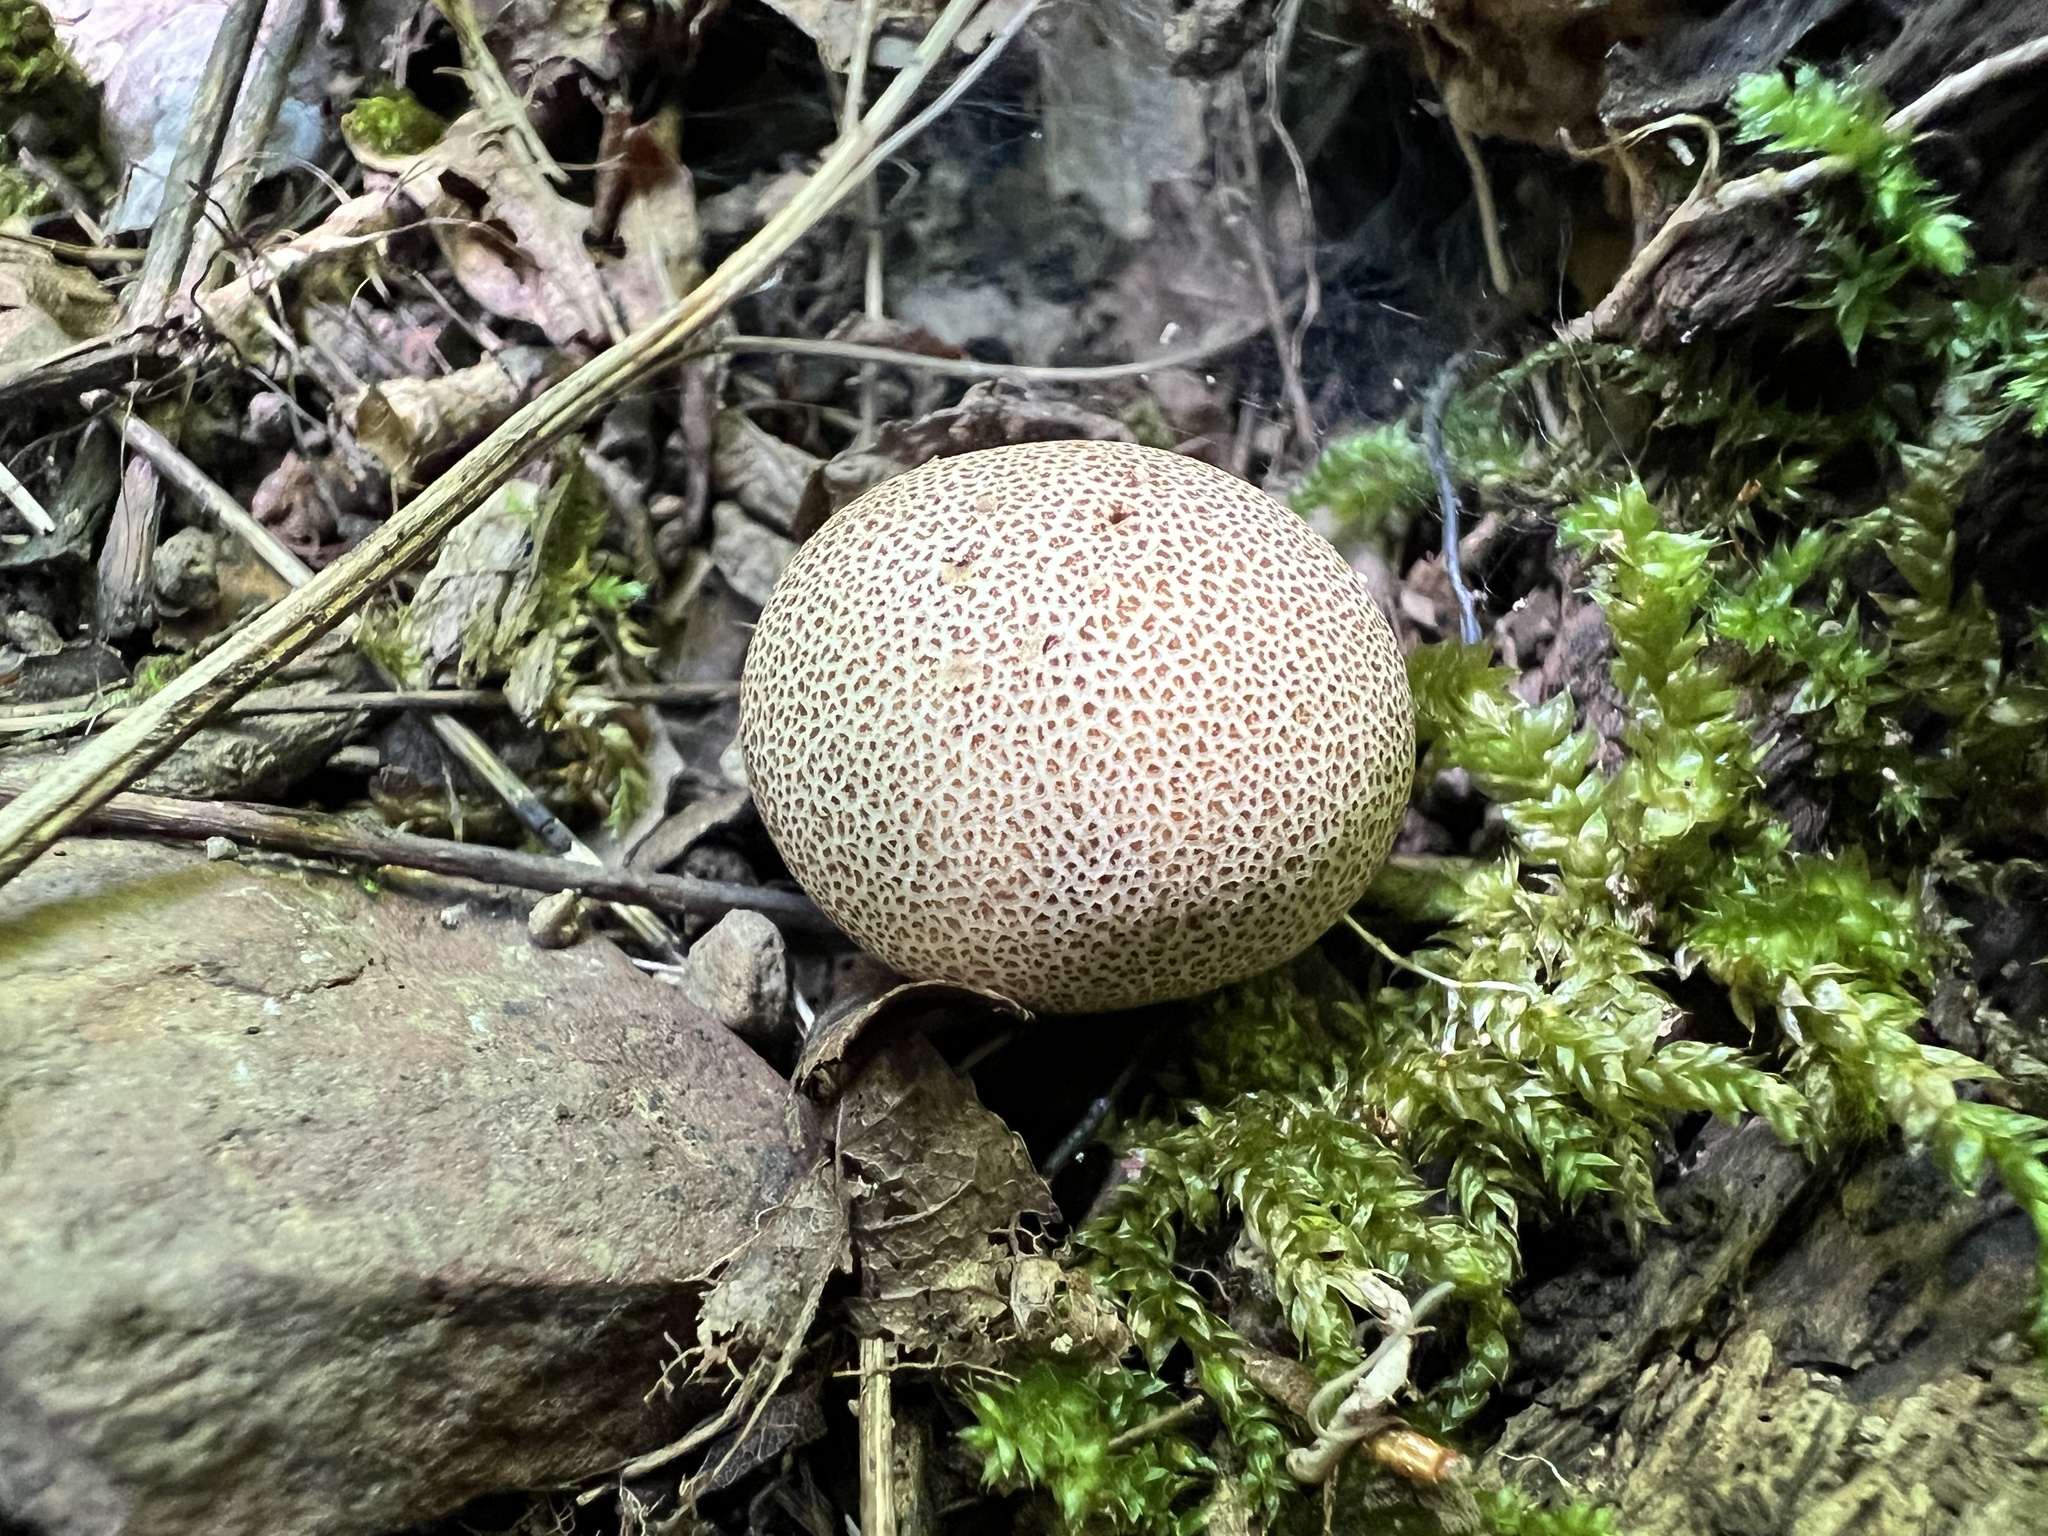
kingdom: Fungi
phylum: Basidiomycota
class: Agaricomycetes
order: Boletales
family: Sclerodermataceae
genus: Scleroderma
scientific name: Scleroderma areolatum
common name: Leopard earthball
